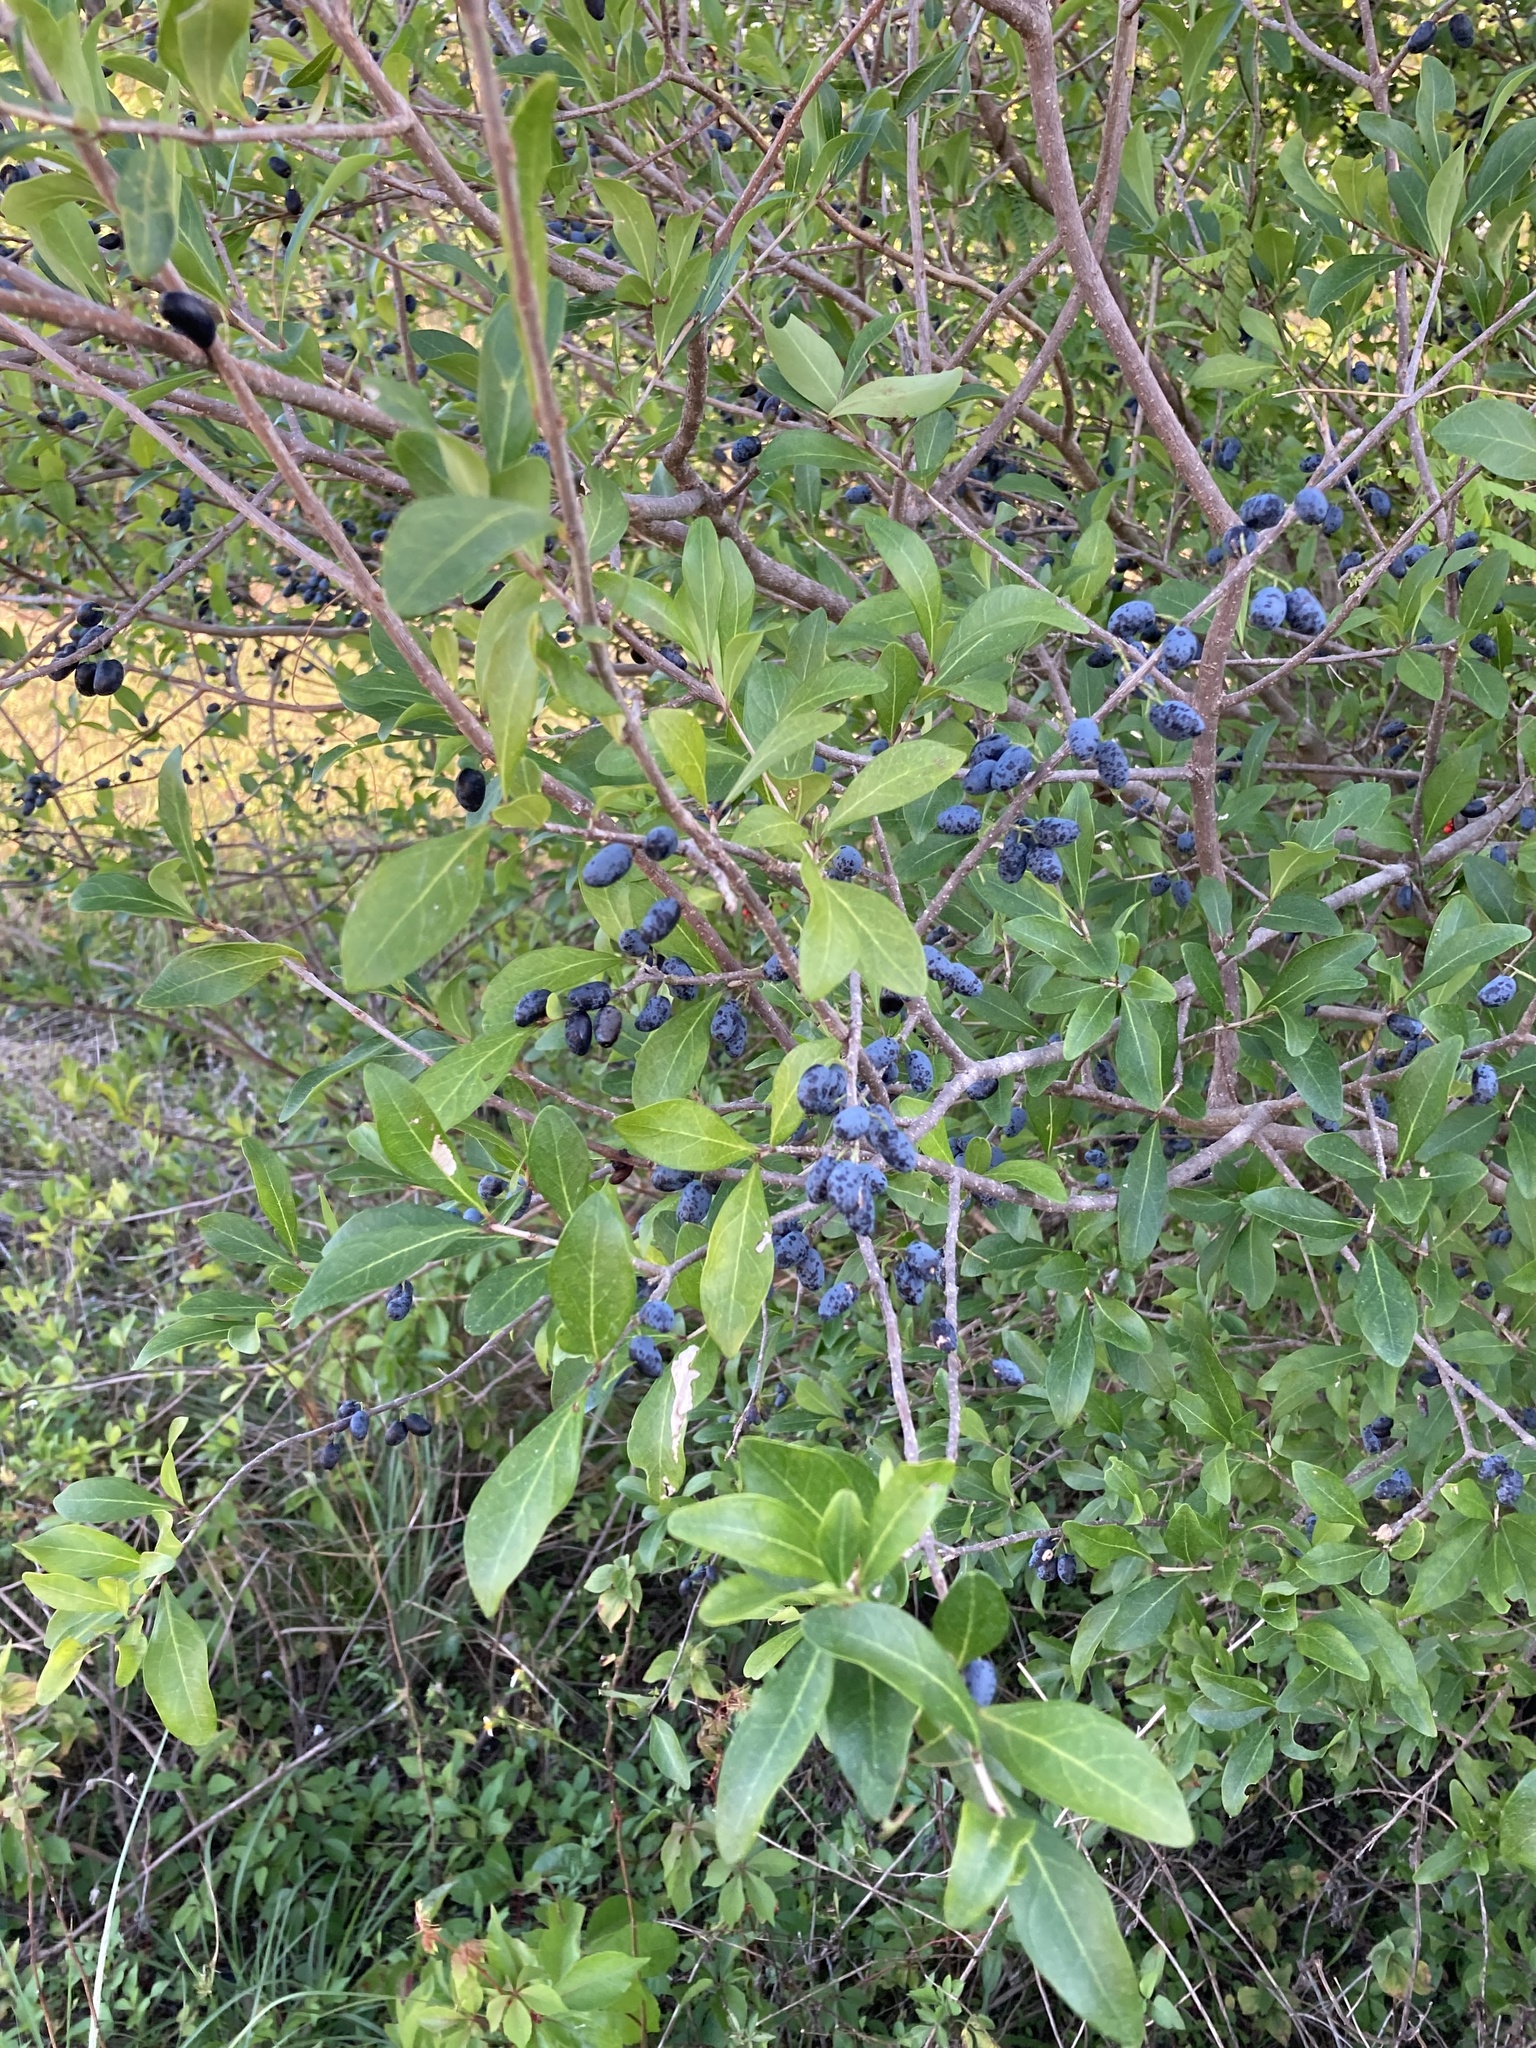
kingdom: Plantae
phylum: Tracheophyta
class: Magnoliopsida
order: Lamiales
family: Oleaceae
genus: Forestiera
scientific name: Forestiera segregata
